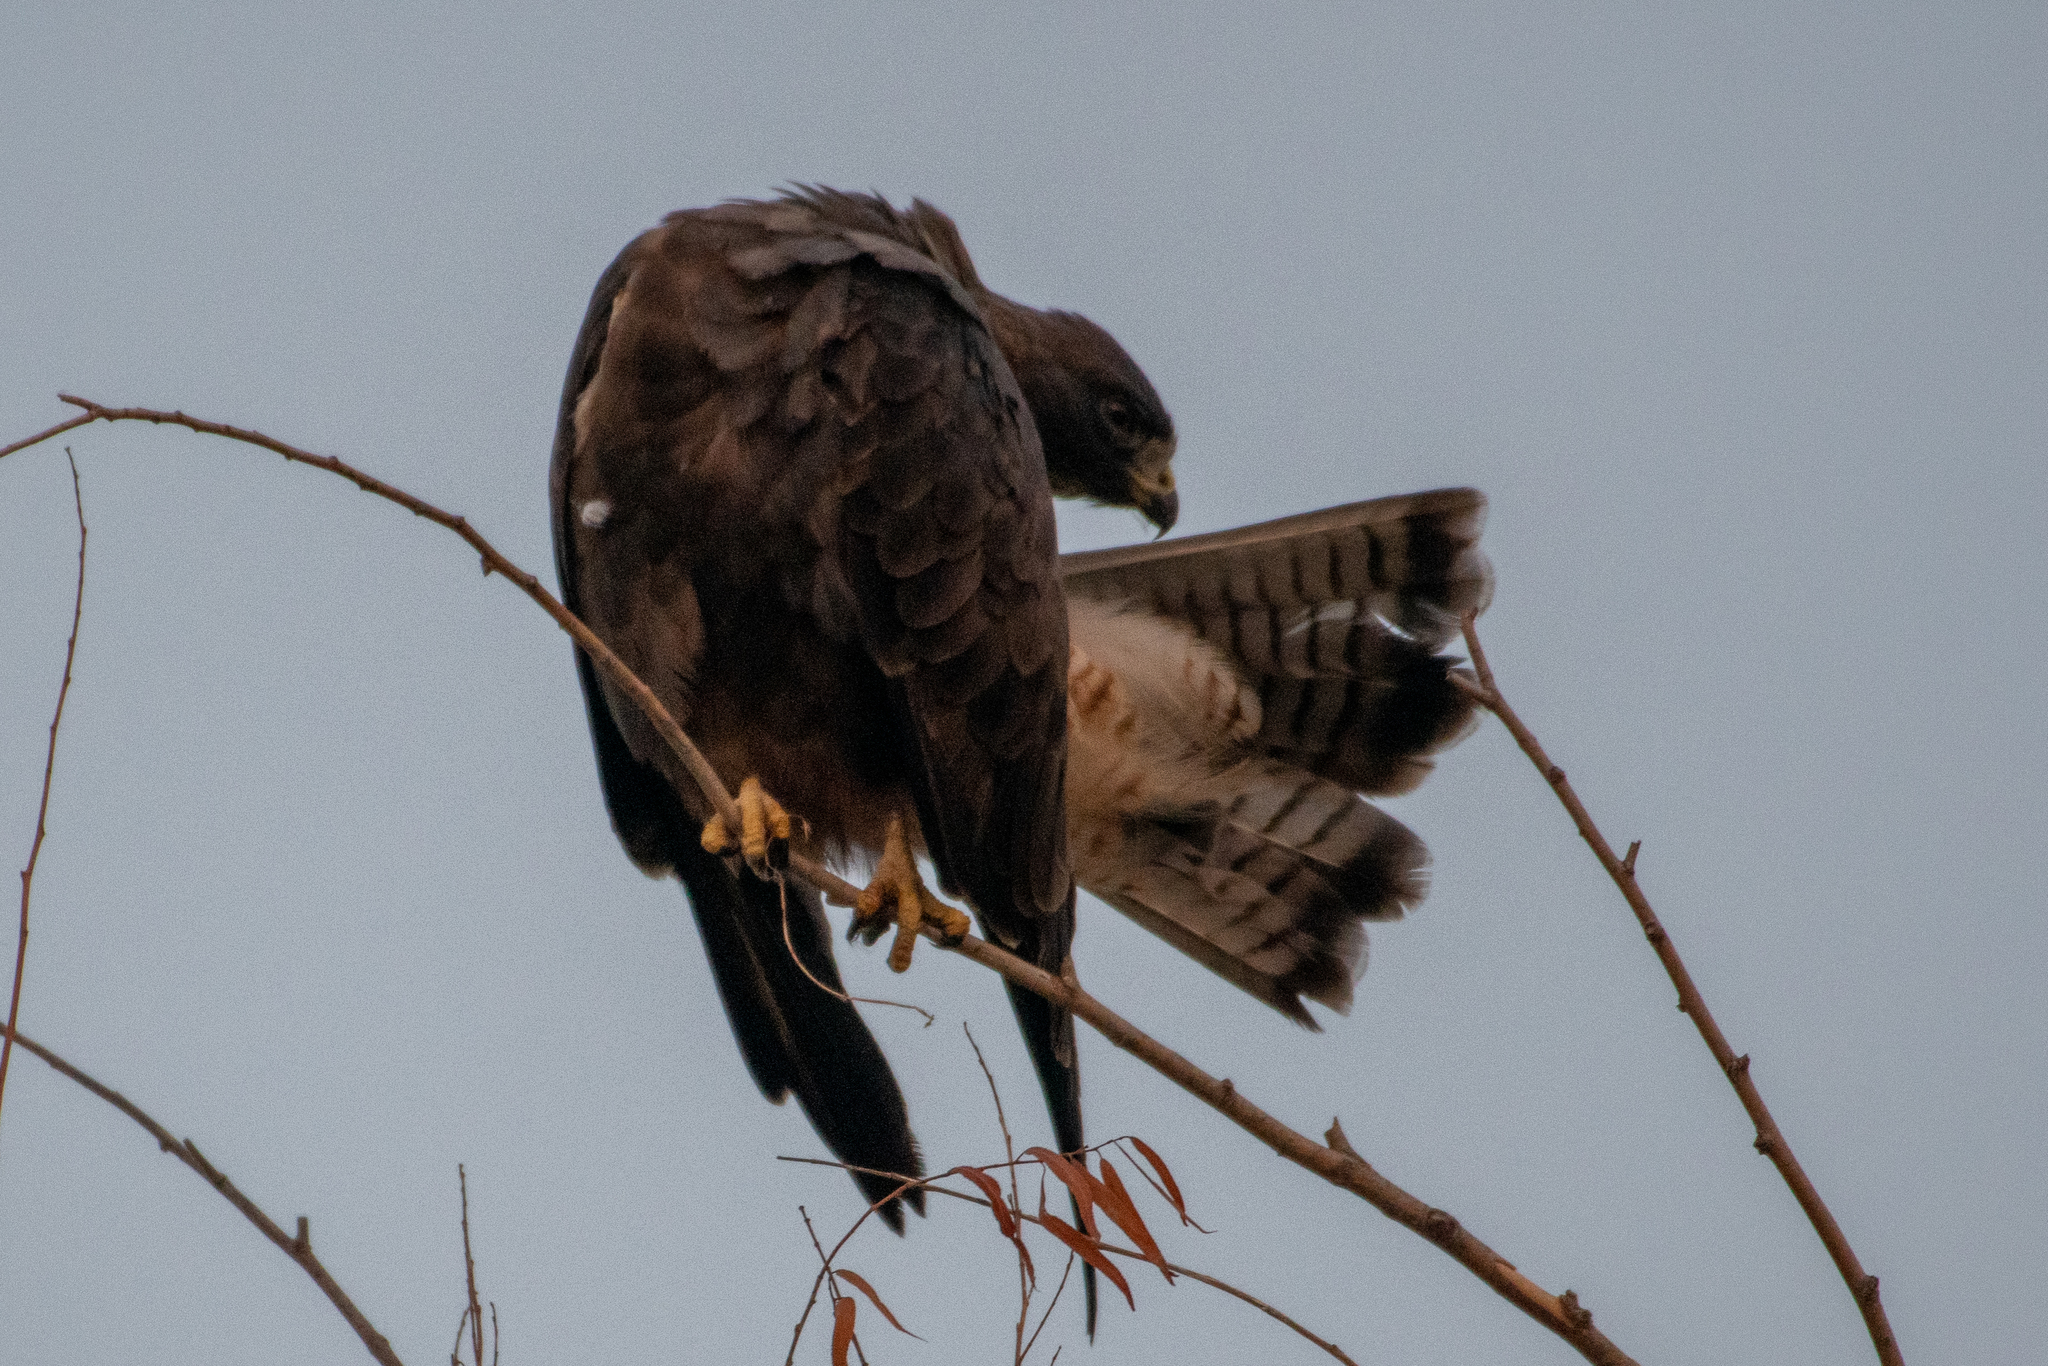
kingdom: Animalia
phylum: Chordata
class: Aves
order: Accipitriformes
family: Accipitridae
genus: Buteo
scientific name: Buteo swainsoni
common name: Swainson's hawk
